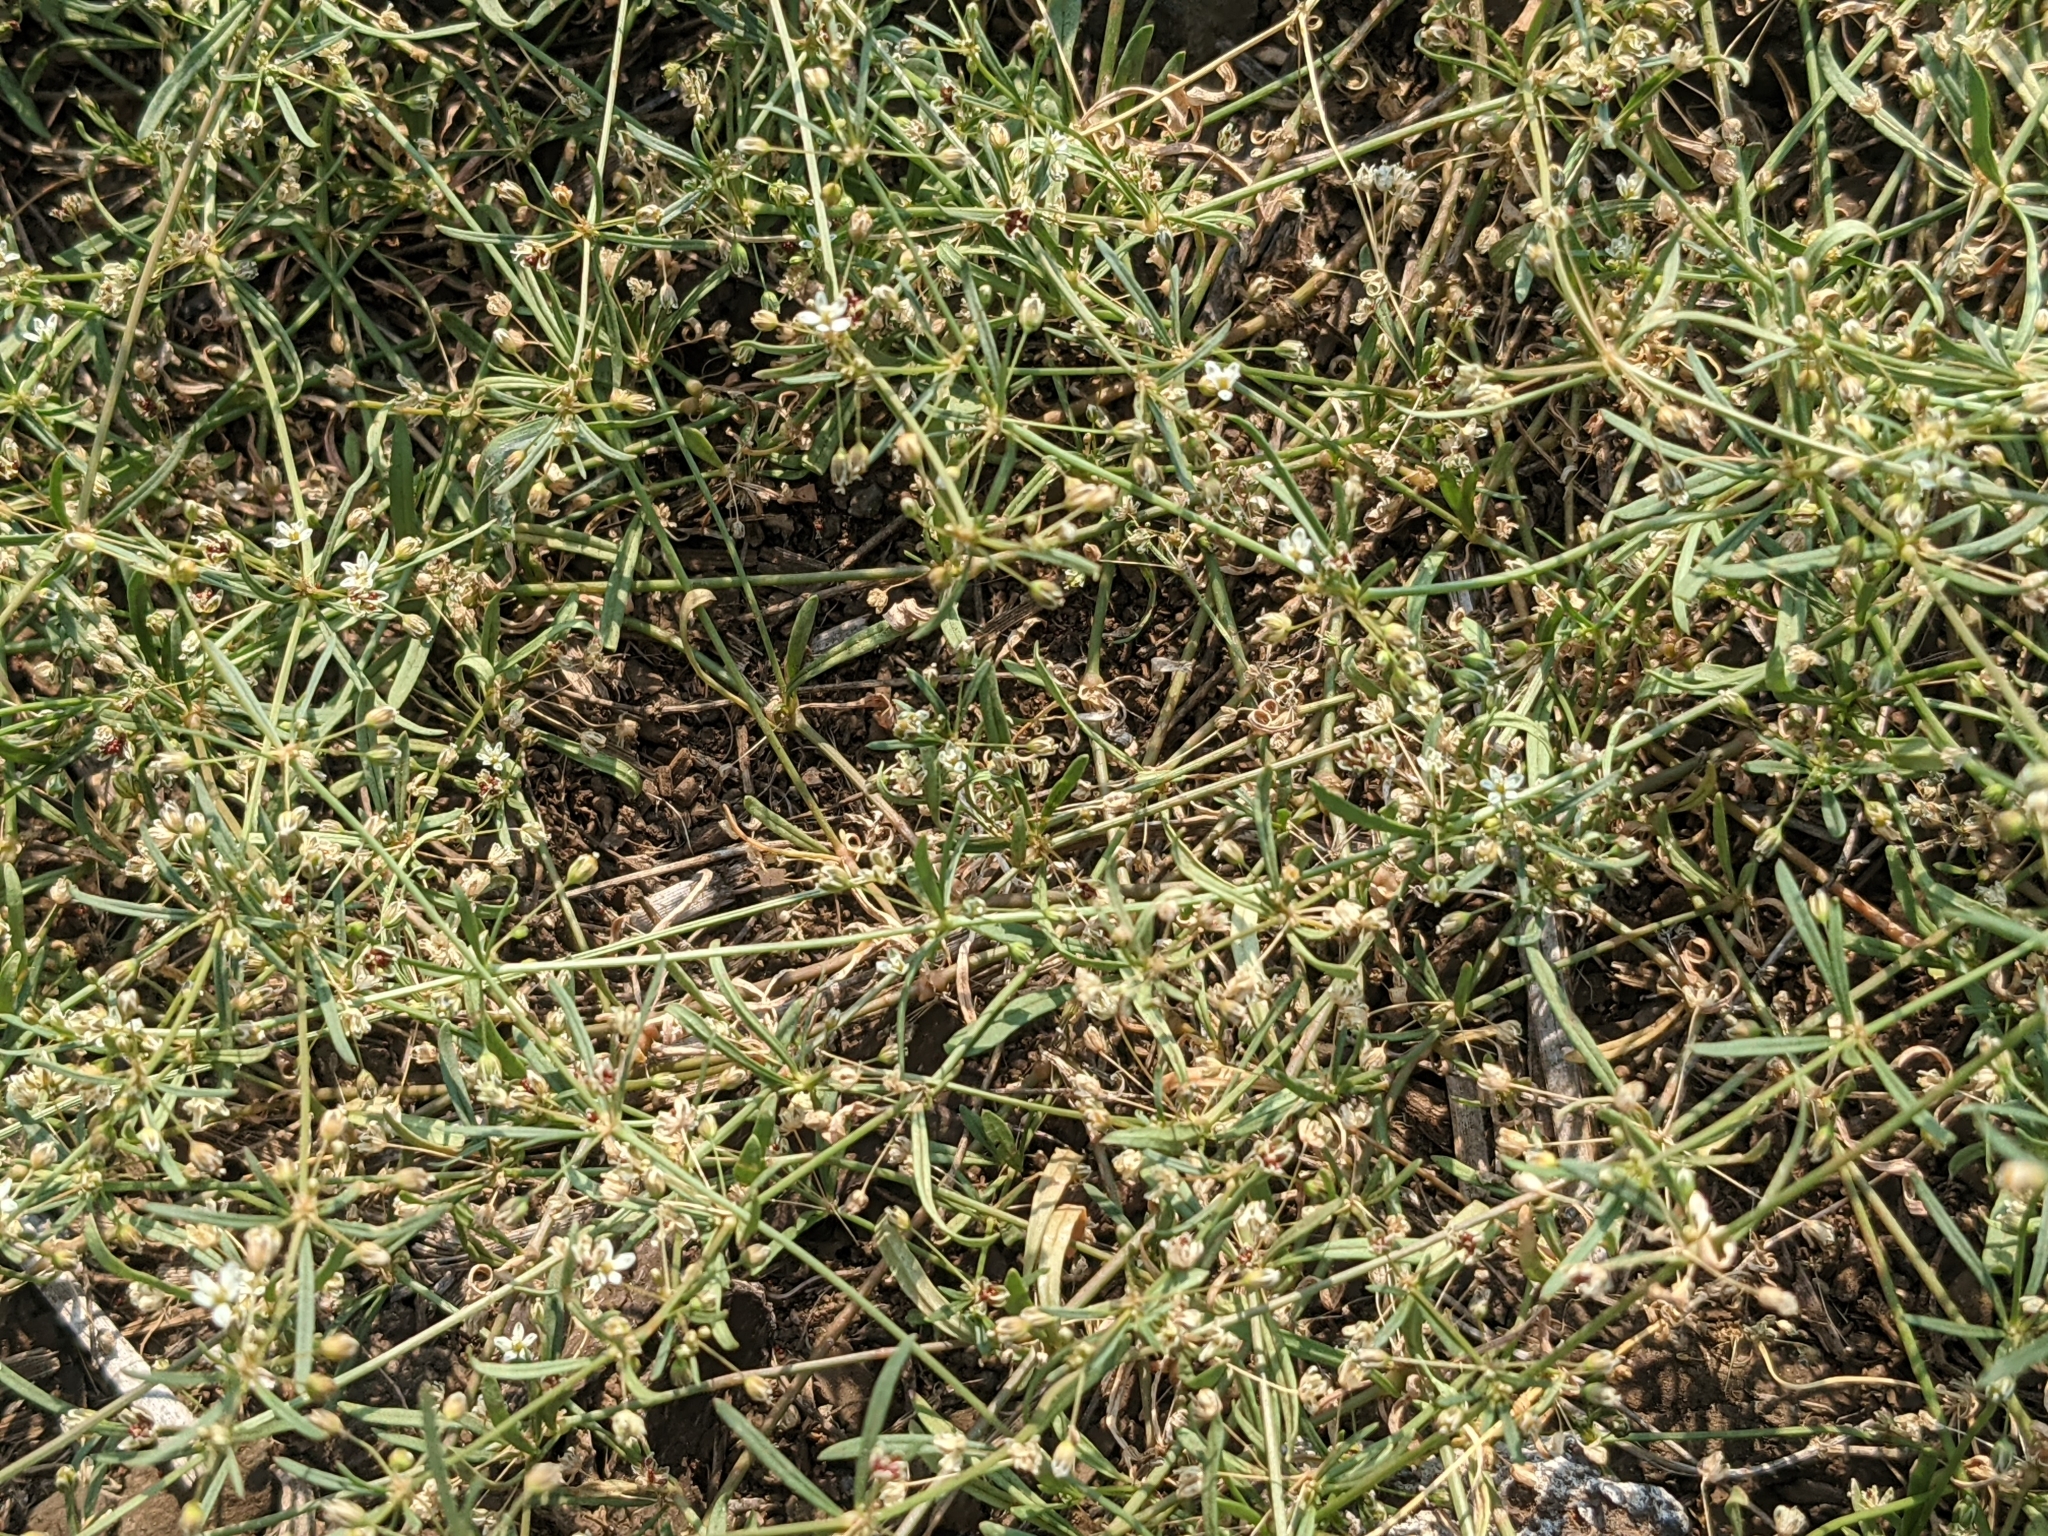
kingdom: Plantae
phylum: Tracheophyta
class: Magnoliopsida
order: Caryophyllales
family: Molluginaceae
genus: Mollugo
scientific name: Mollugo verticillata
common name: Green carpetweed
